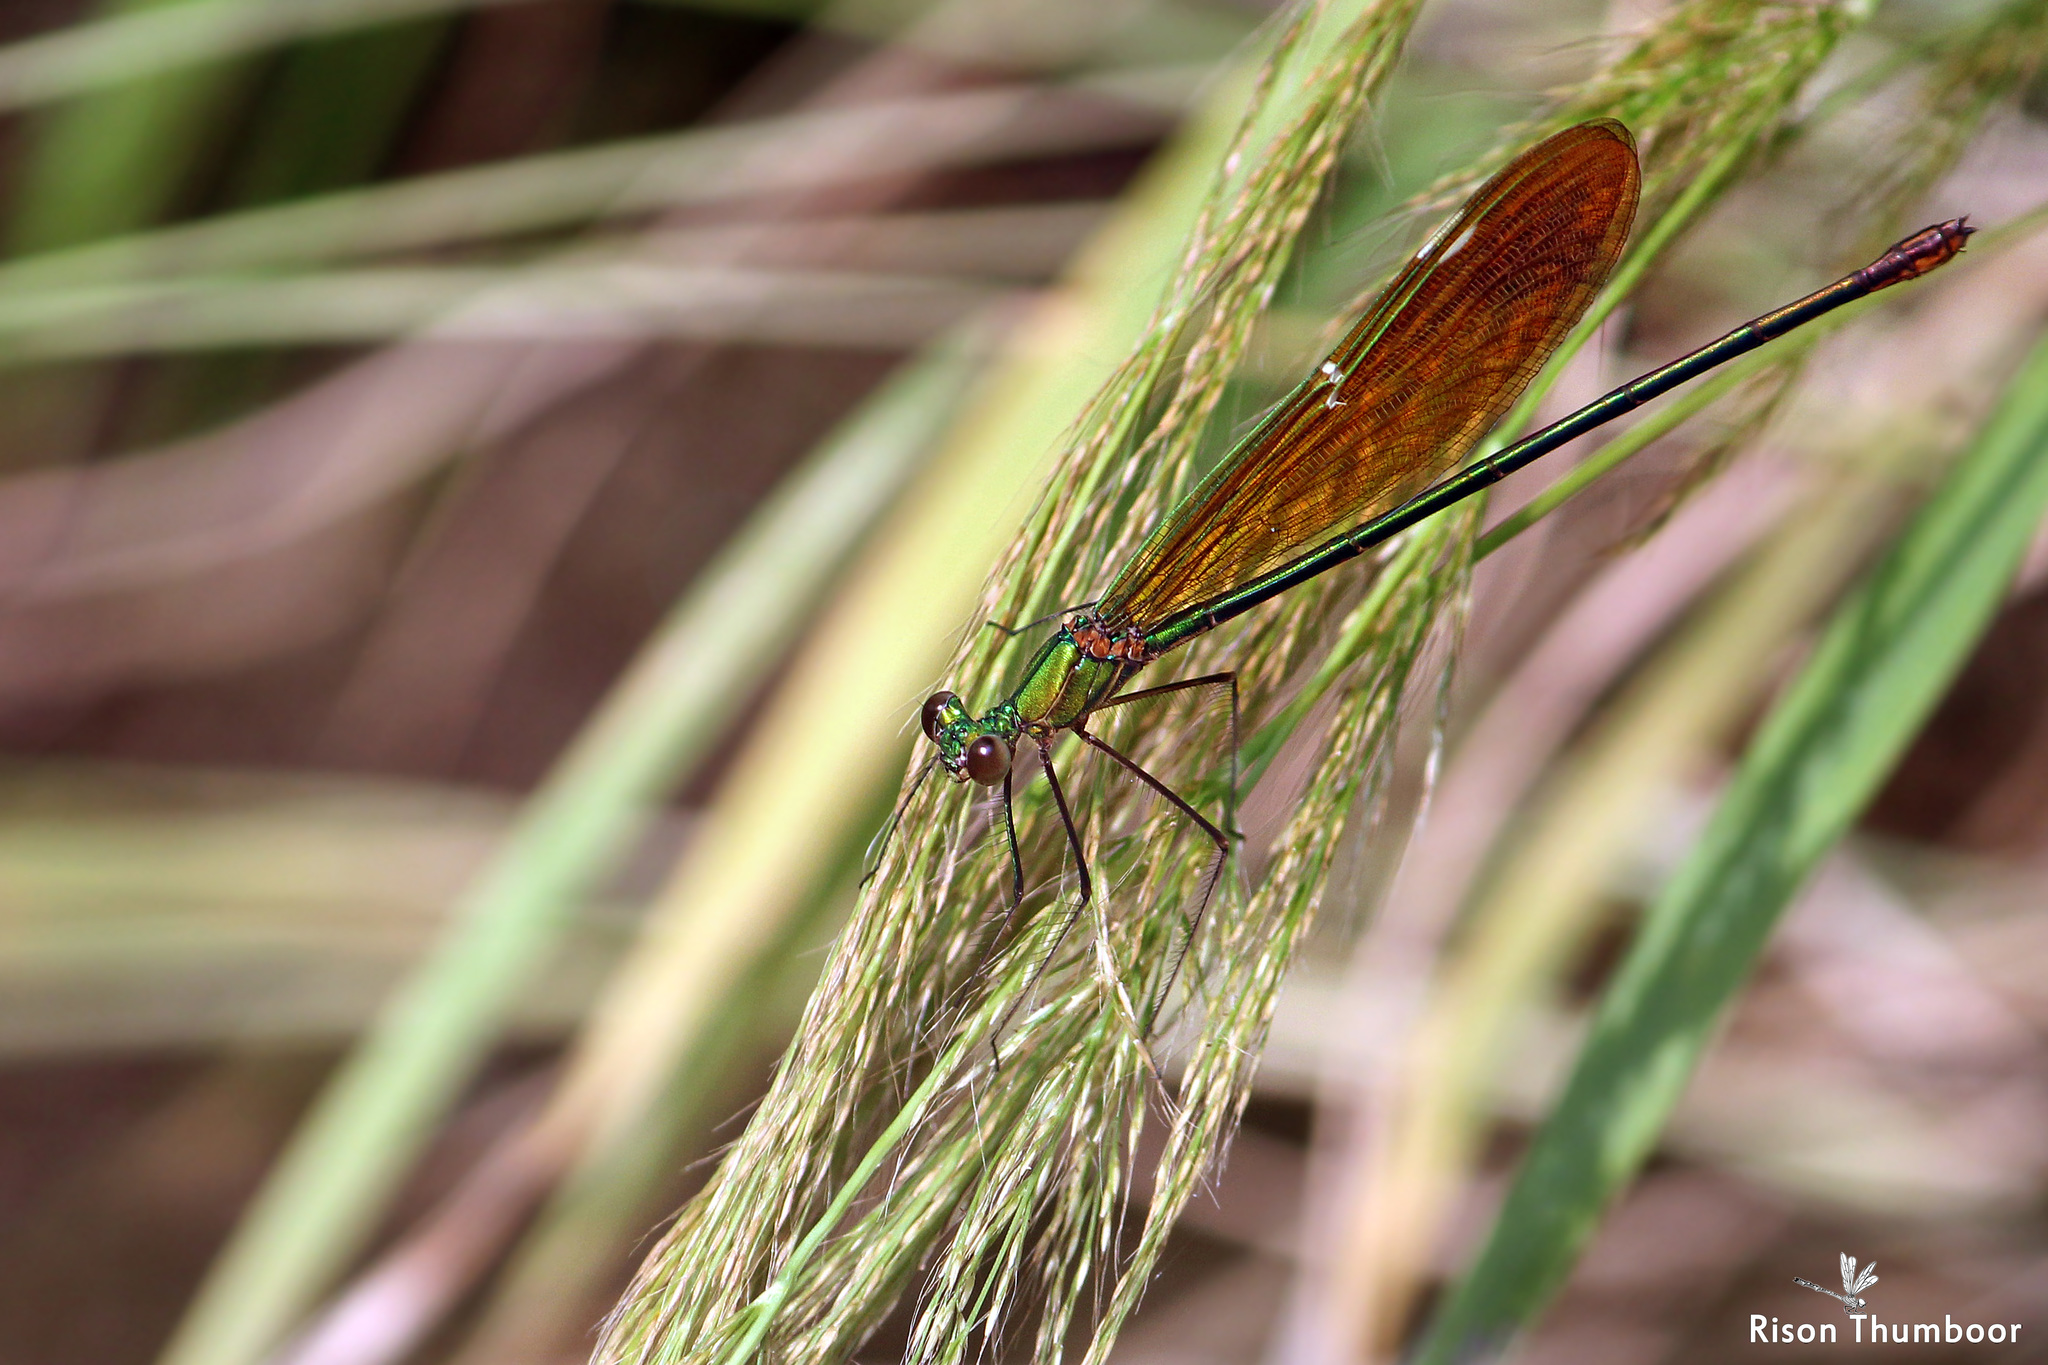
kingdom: Animalia
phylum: Arthropoda
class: Insecta
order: Odonata
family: Calopterygidae
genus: Neurobasis
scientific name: Neurobasis chinensis
